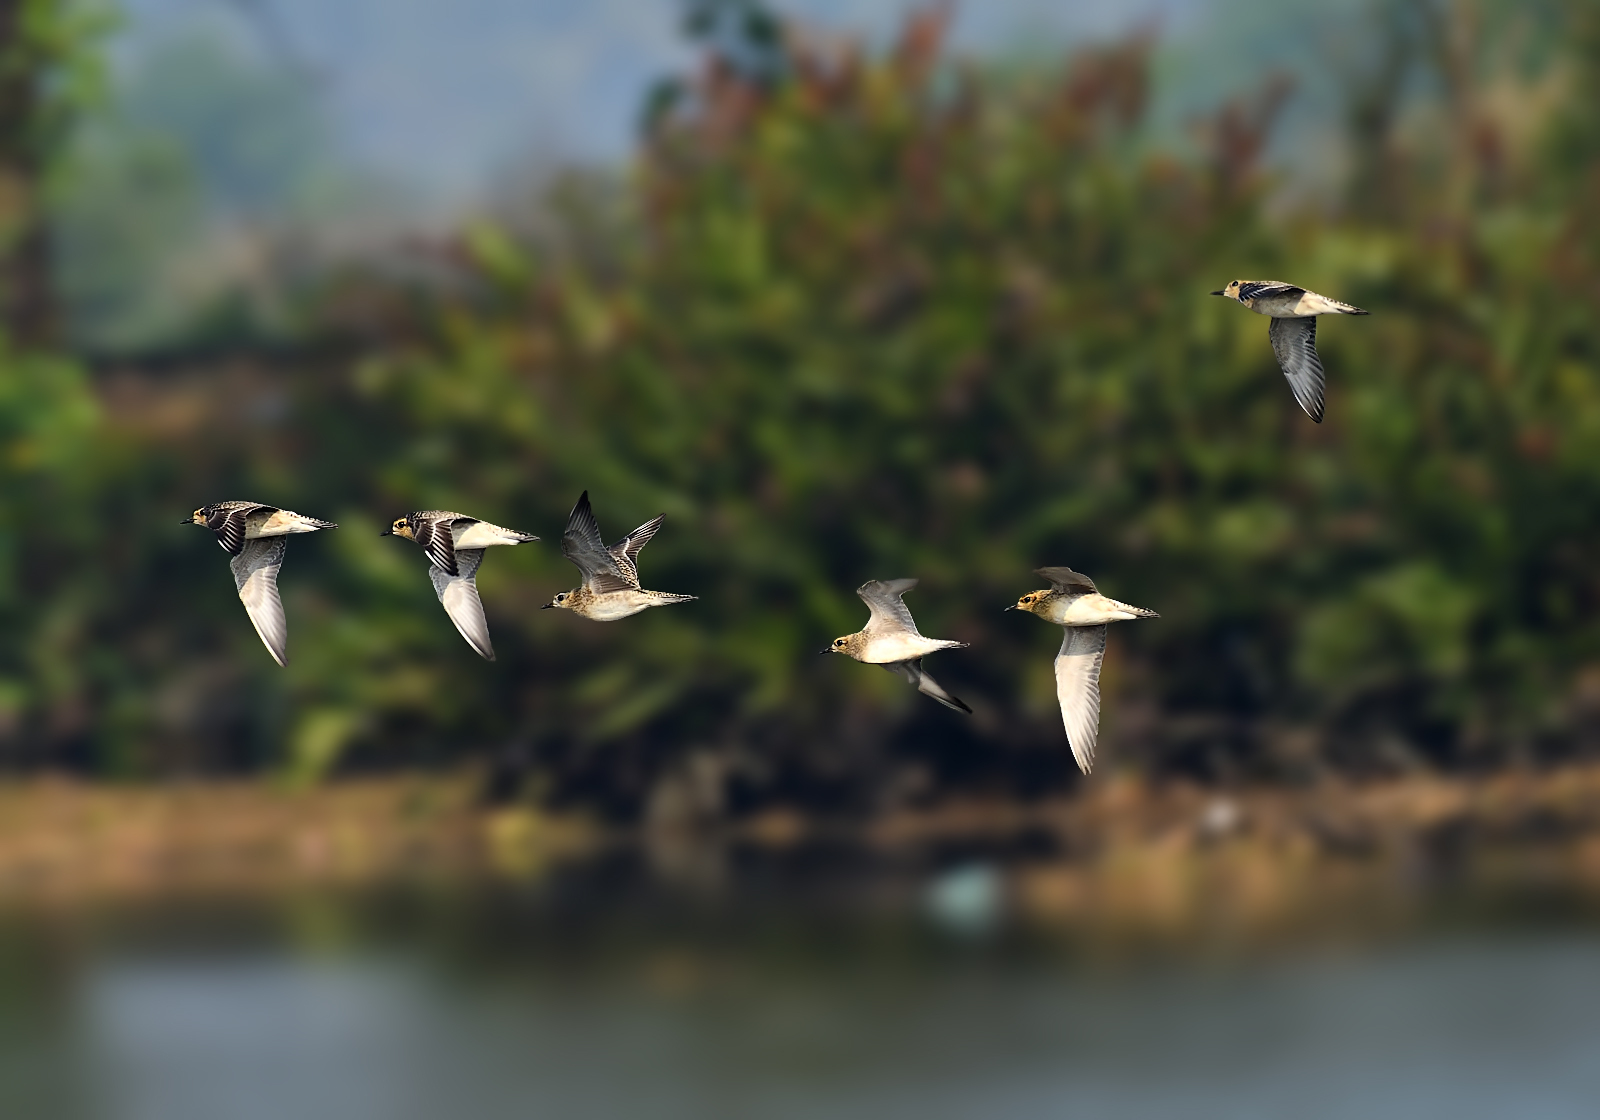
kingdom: Animalia
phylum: Chordata
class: Aves
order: Charadriiformes
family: Charadriidae
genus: Pluvialis
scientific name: Pluvialis fulva
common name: Pacific golden plover
